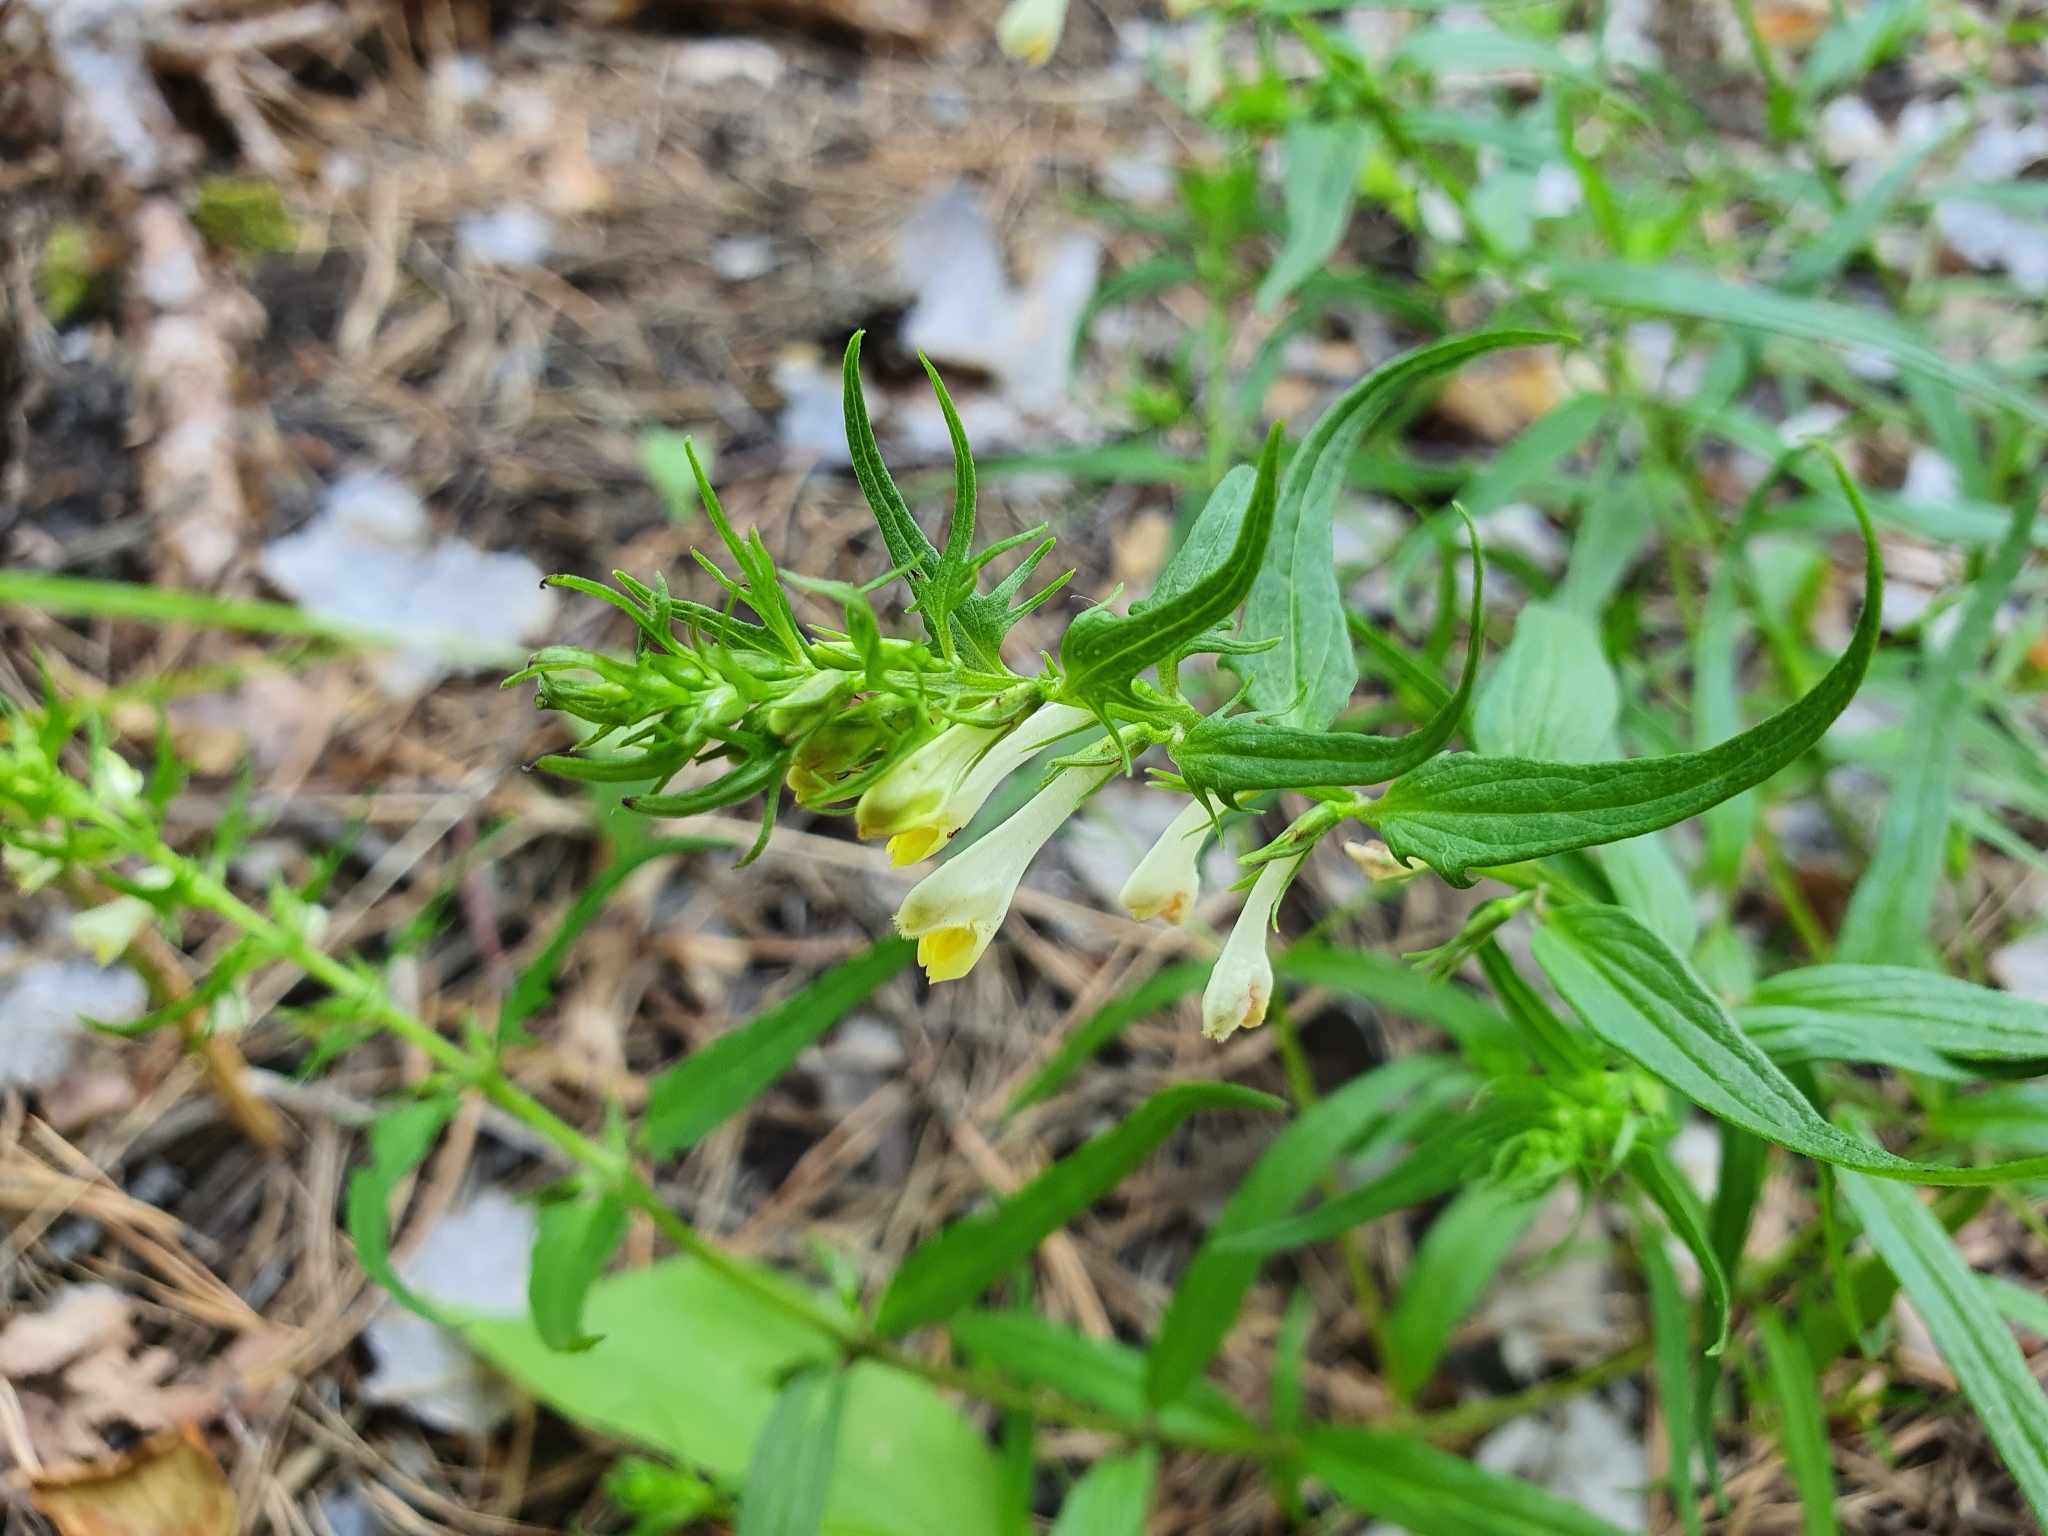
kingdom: Plantae
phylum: Tracheophyta
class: Magnoliopsida
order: Lamiales
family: Orobanchaceae
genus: Melampyrum
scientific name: Melampyrum pratense
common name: Common cow-wheat
